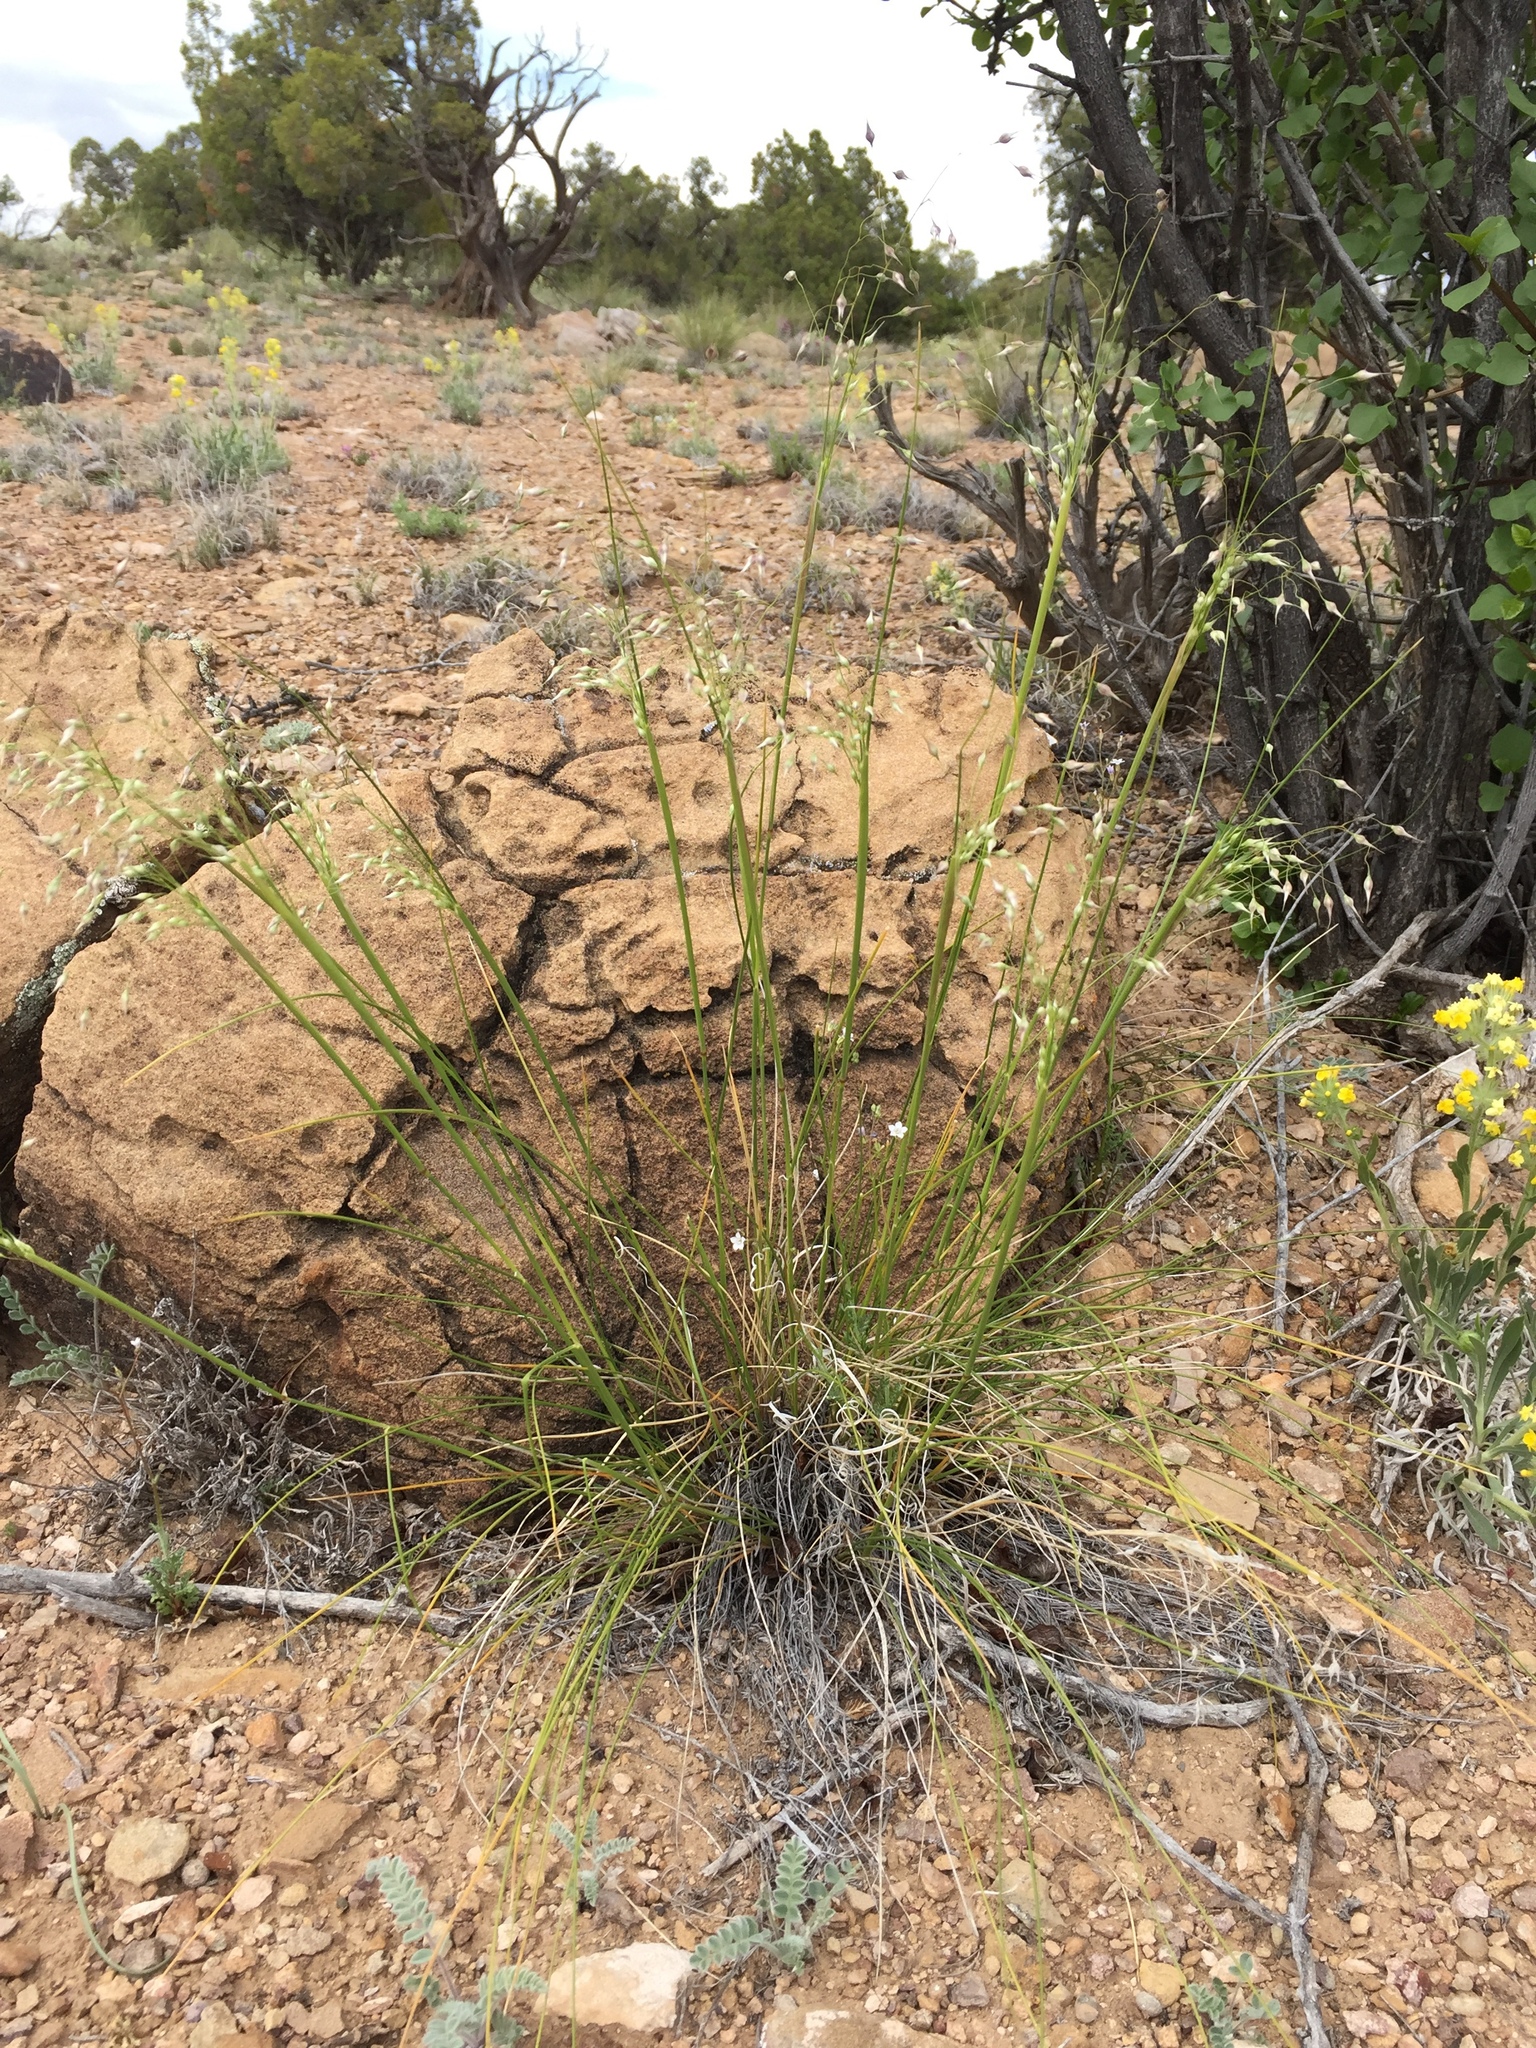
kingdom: Plantae
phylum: Tracheophyta
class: Liliopsida
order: Poales
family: Poaceae
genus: Eriocoma
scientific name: Eriocoma hymenoides
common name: Indian mountain ricegrass
